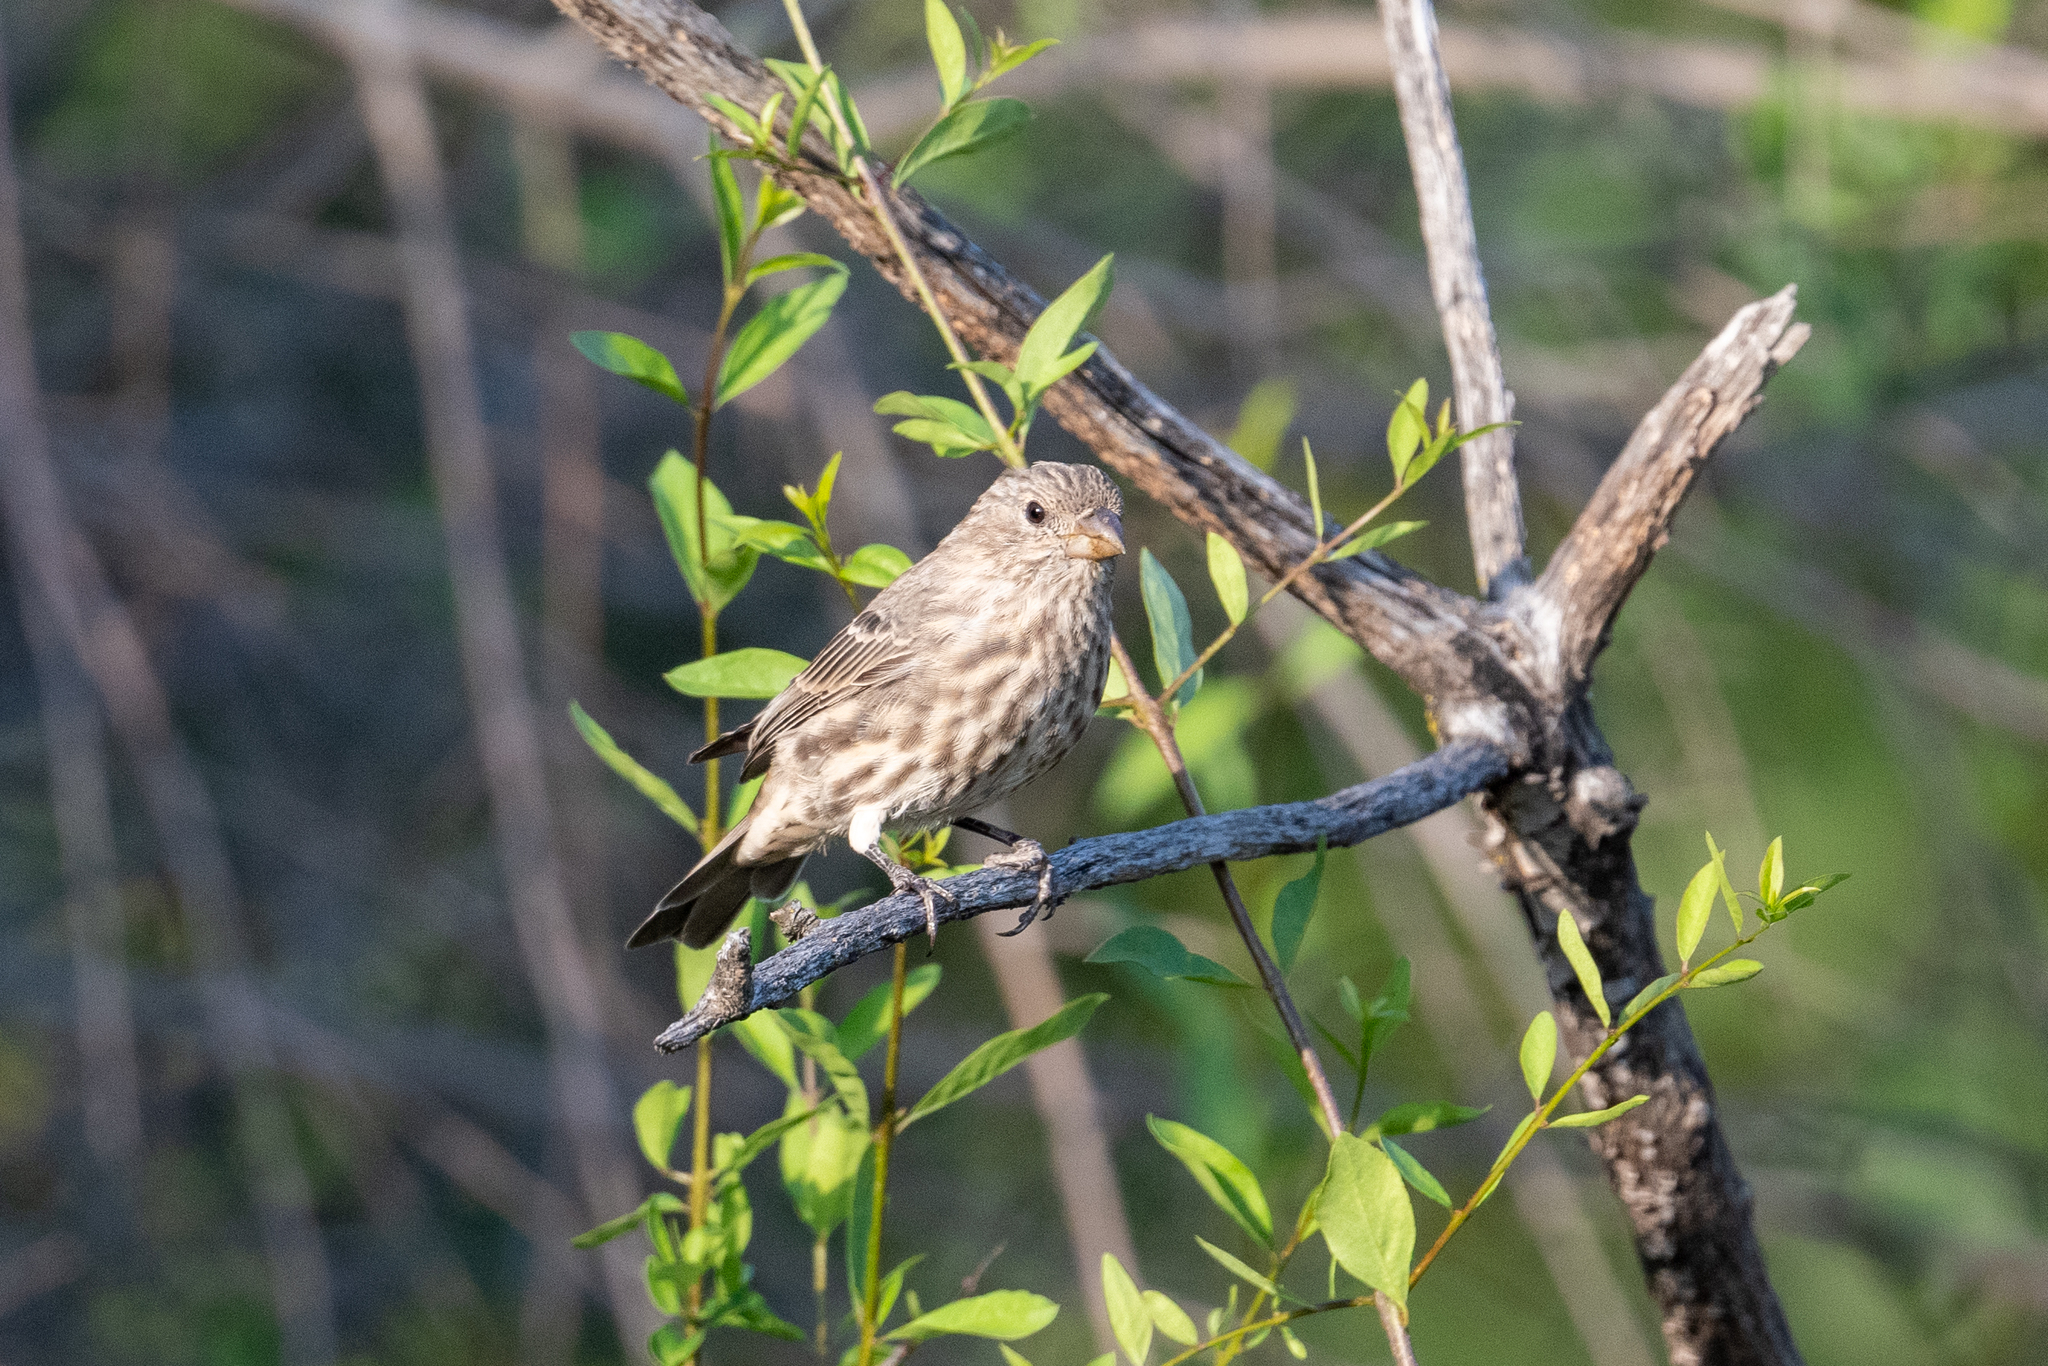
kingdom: Animalia
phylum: Chordata
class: Aves
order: Passeriformes
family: Fringillidae
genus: Haemorhous
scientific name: Haemorhous mexicanus
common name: House finch
